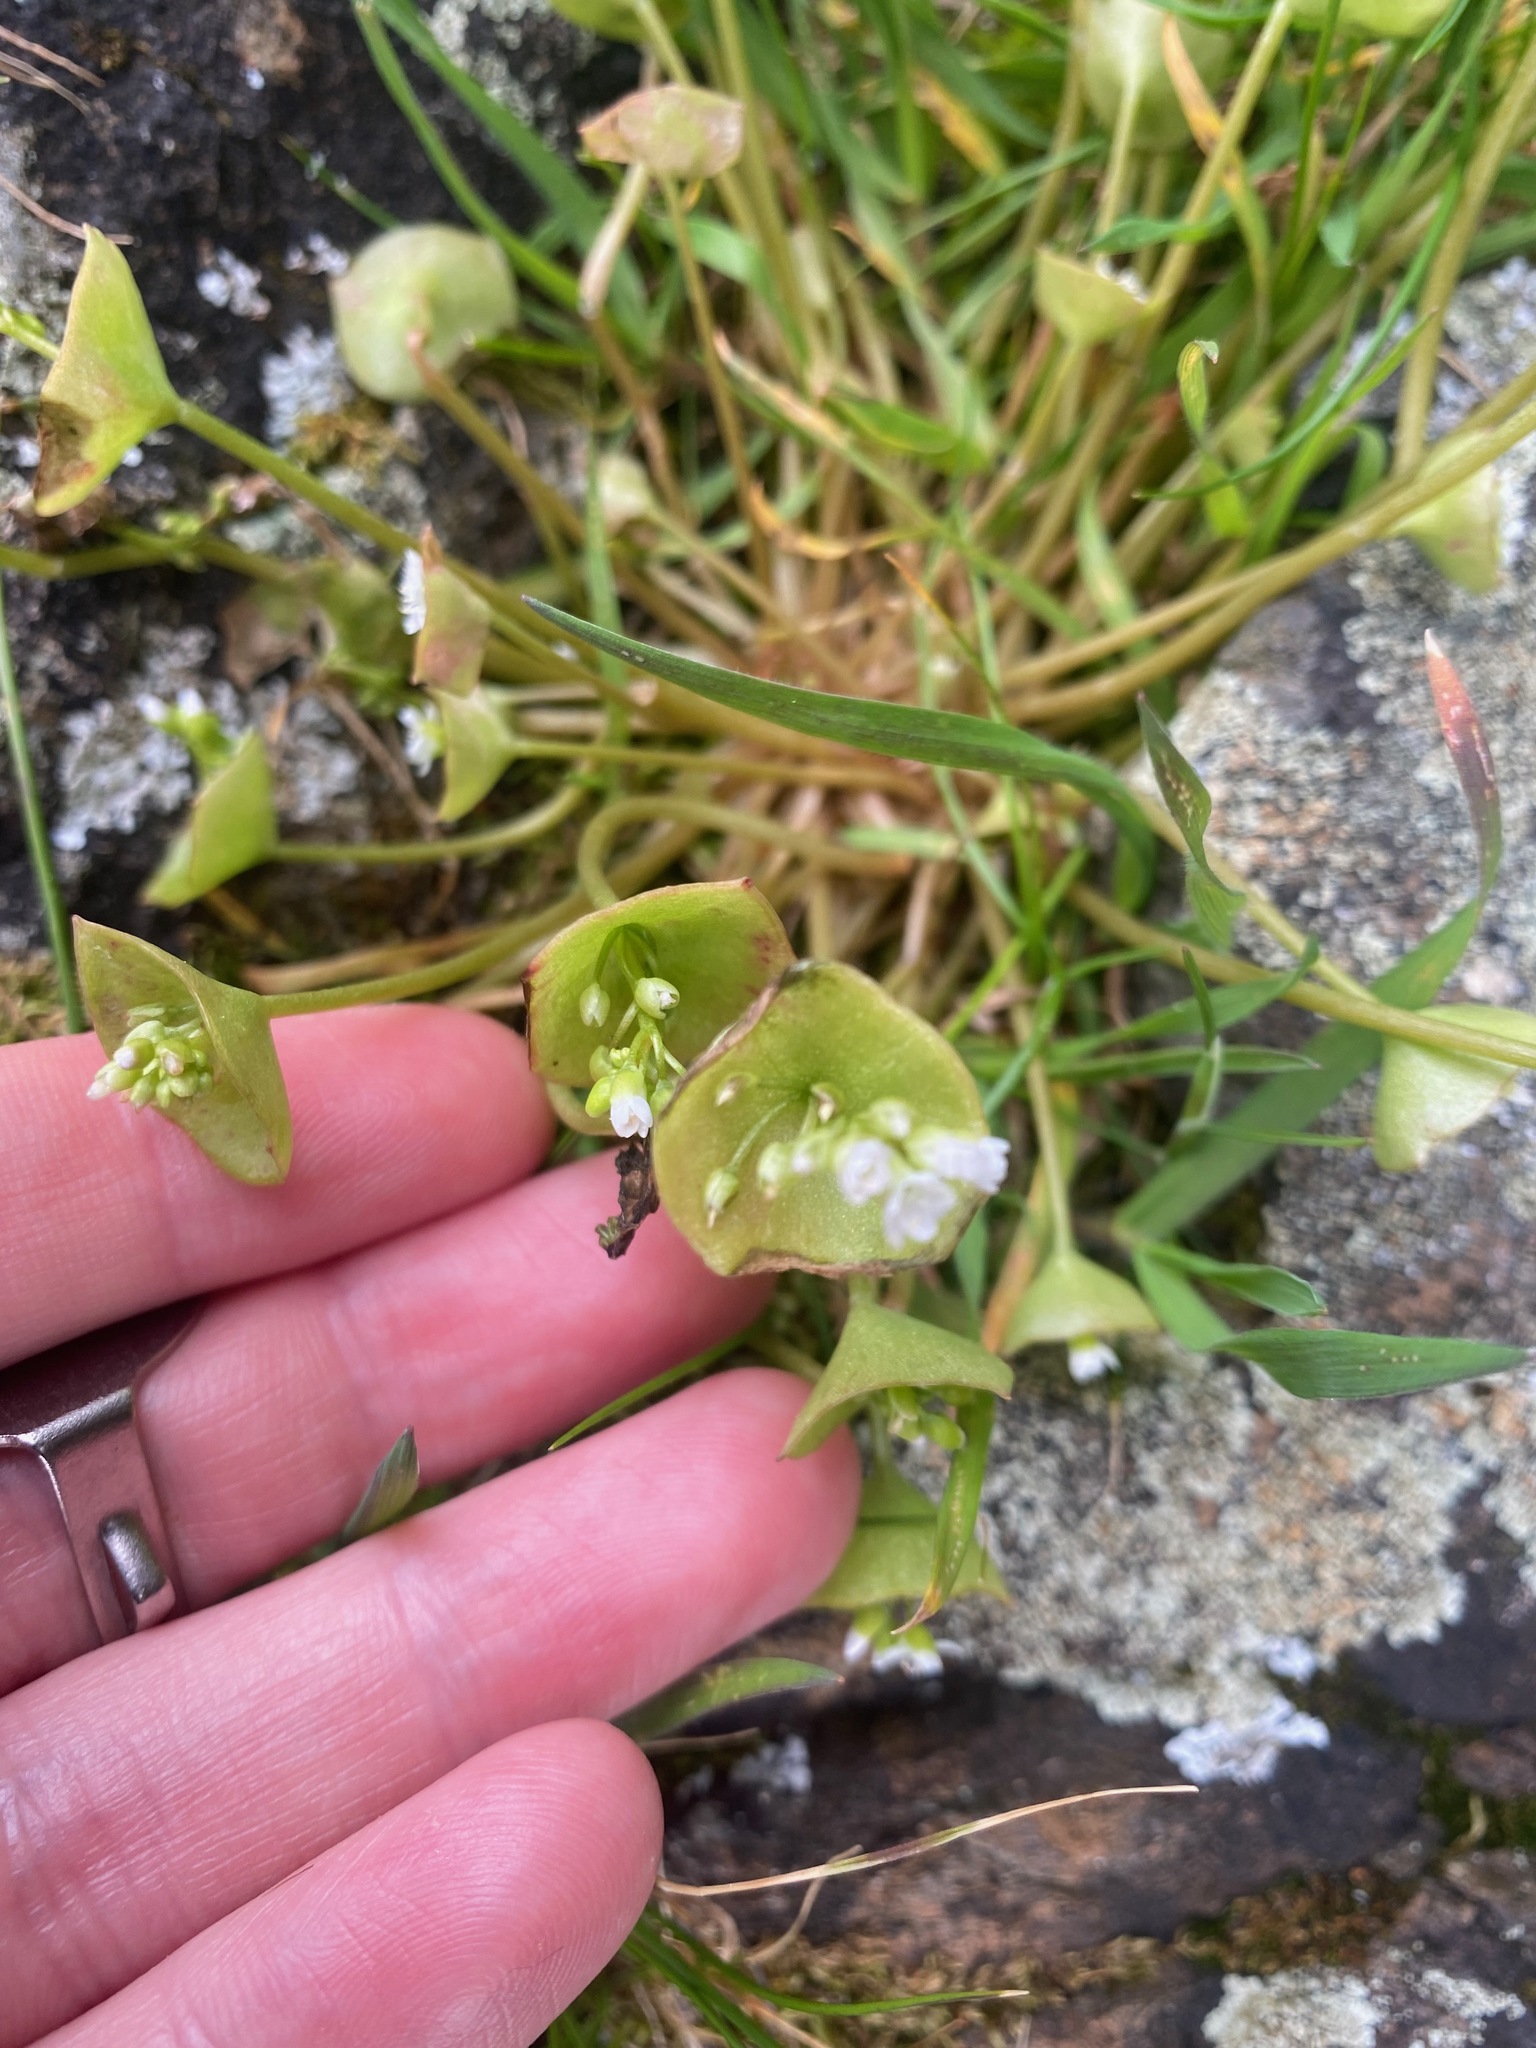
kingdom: Plantae
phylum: Tracheophyta
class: Magnoliopsida
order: Caryophyllales
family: Montiaceae
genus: Claytonia
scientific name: Claytonia perfoliata
